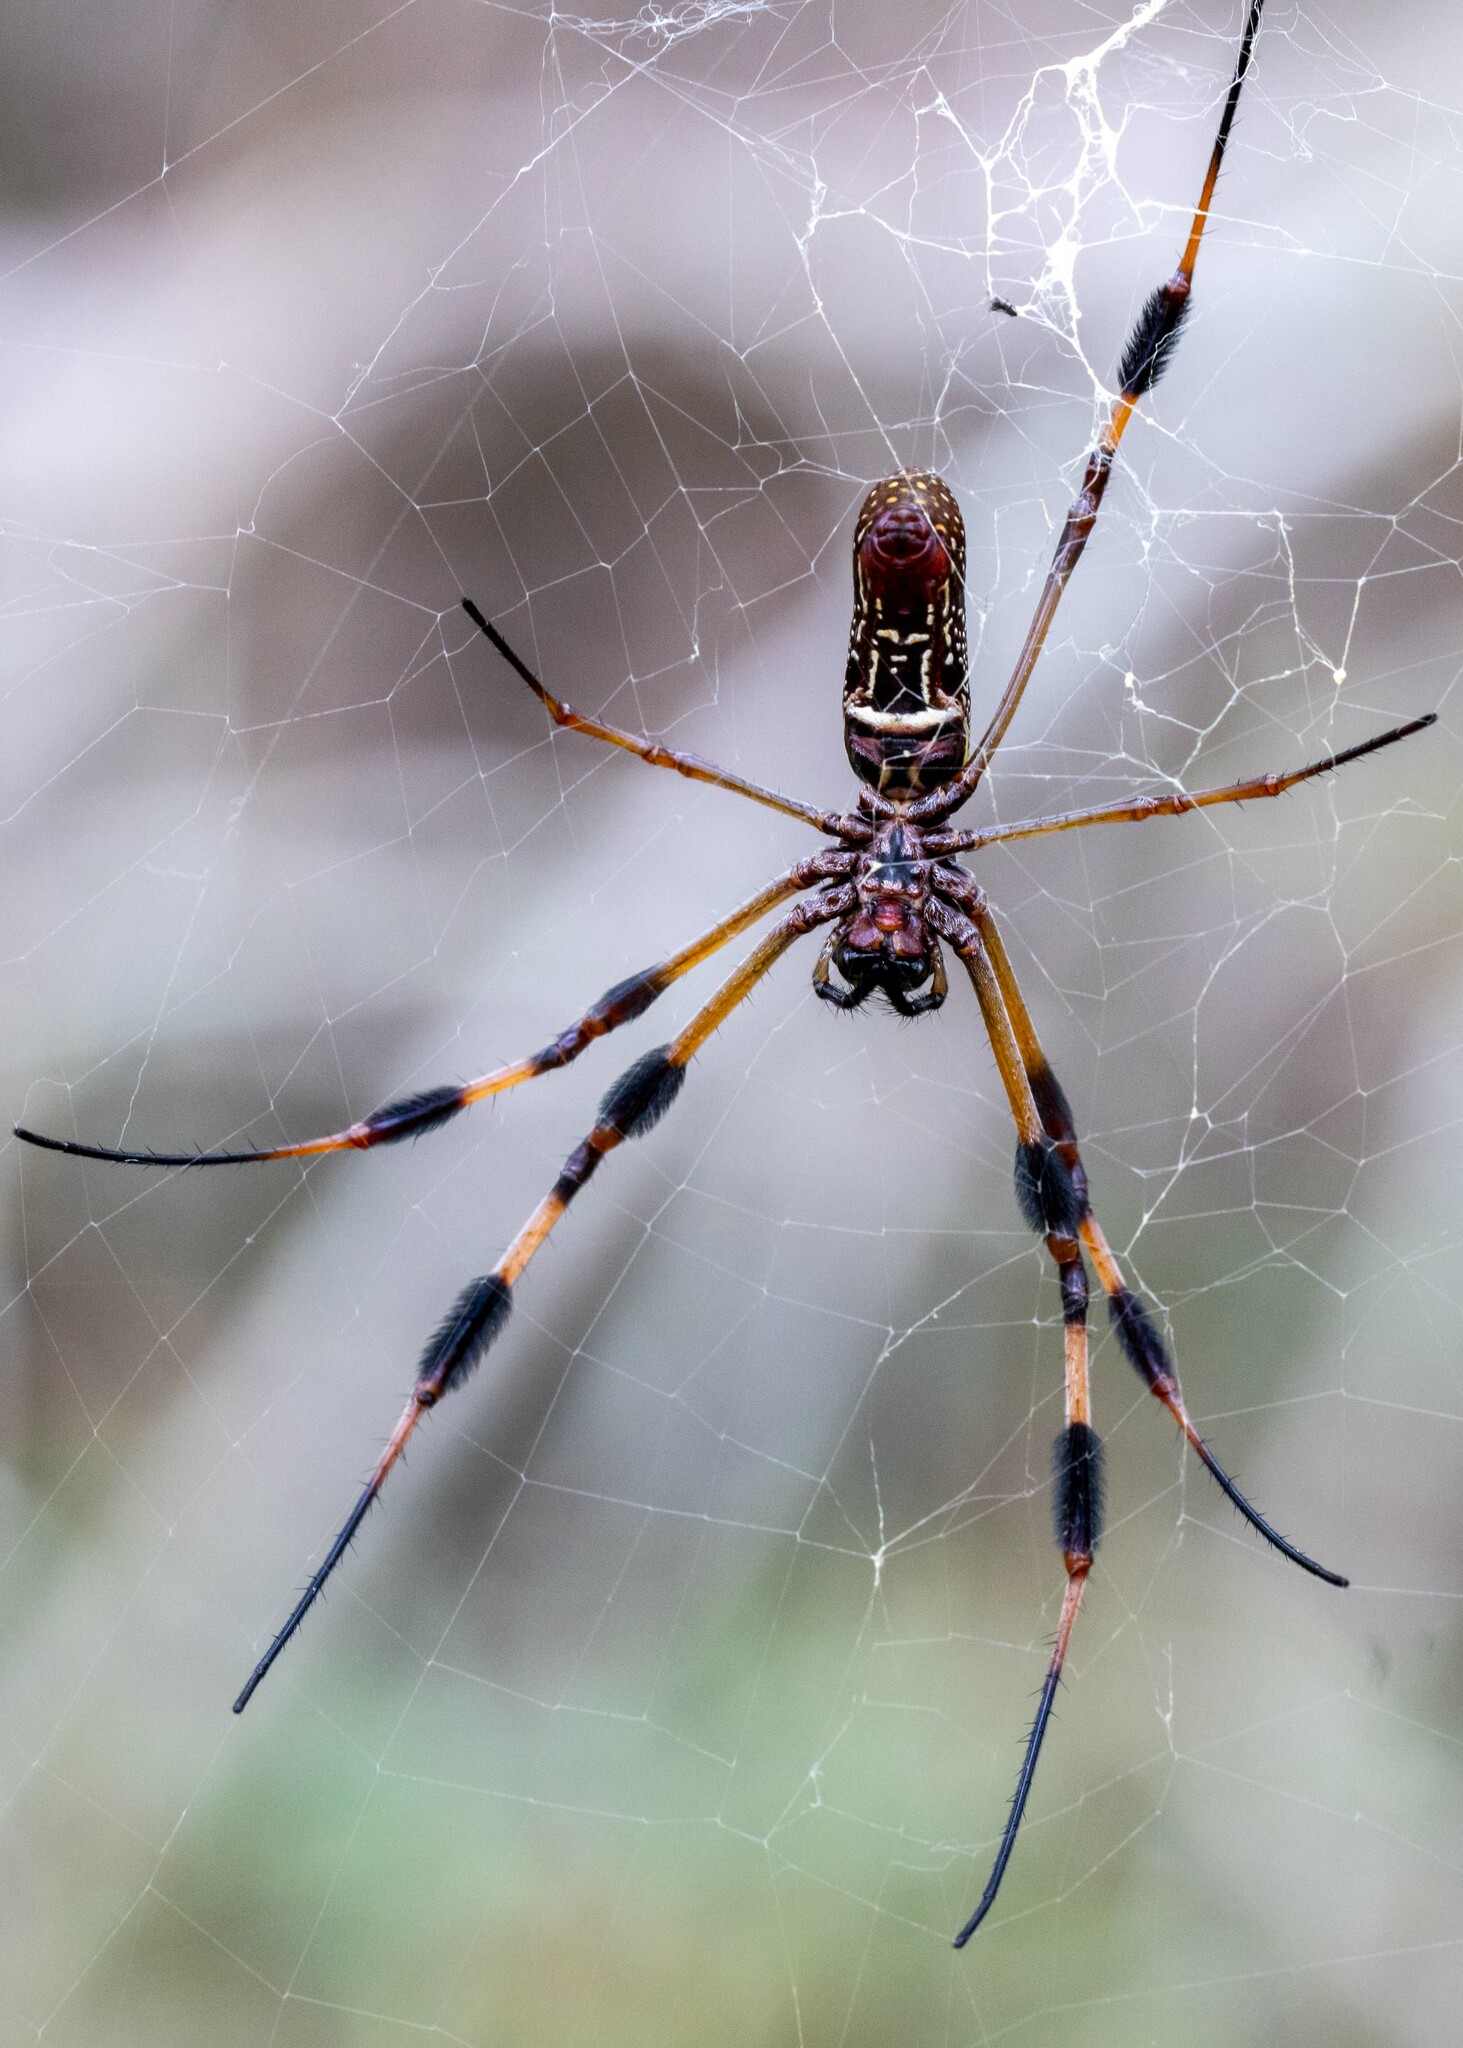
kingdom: Animalia
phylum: Arthropoda
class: Arachnida
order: Araneae
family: Araneidae
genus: Trichonephila
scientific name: Trichonephila clavipes
